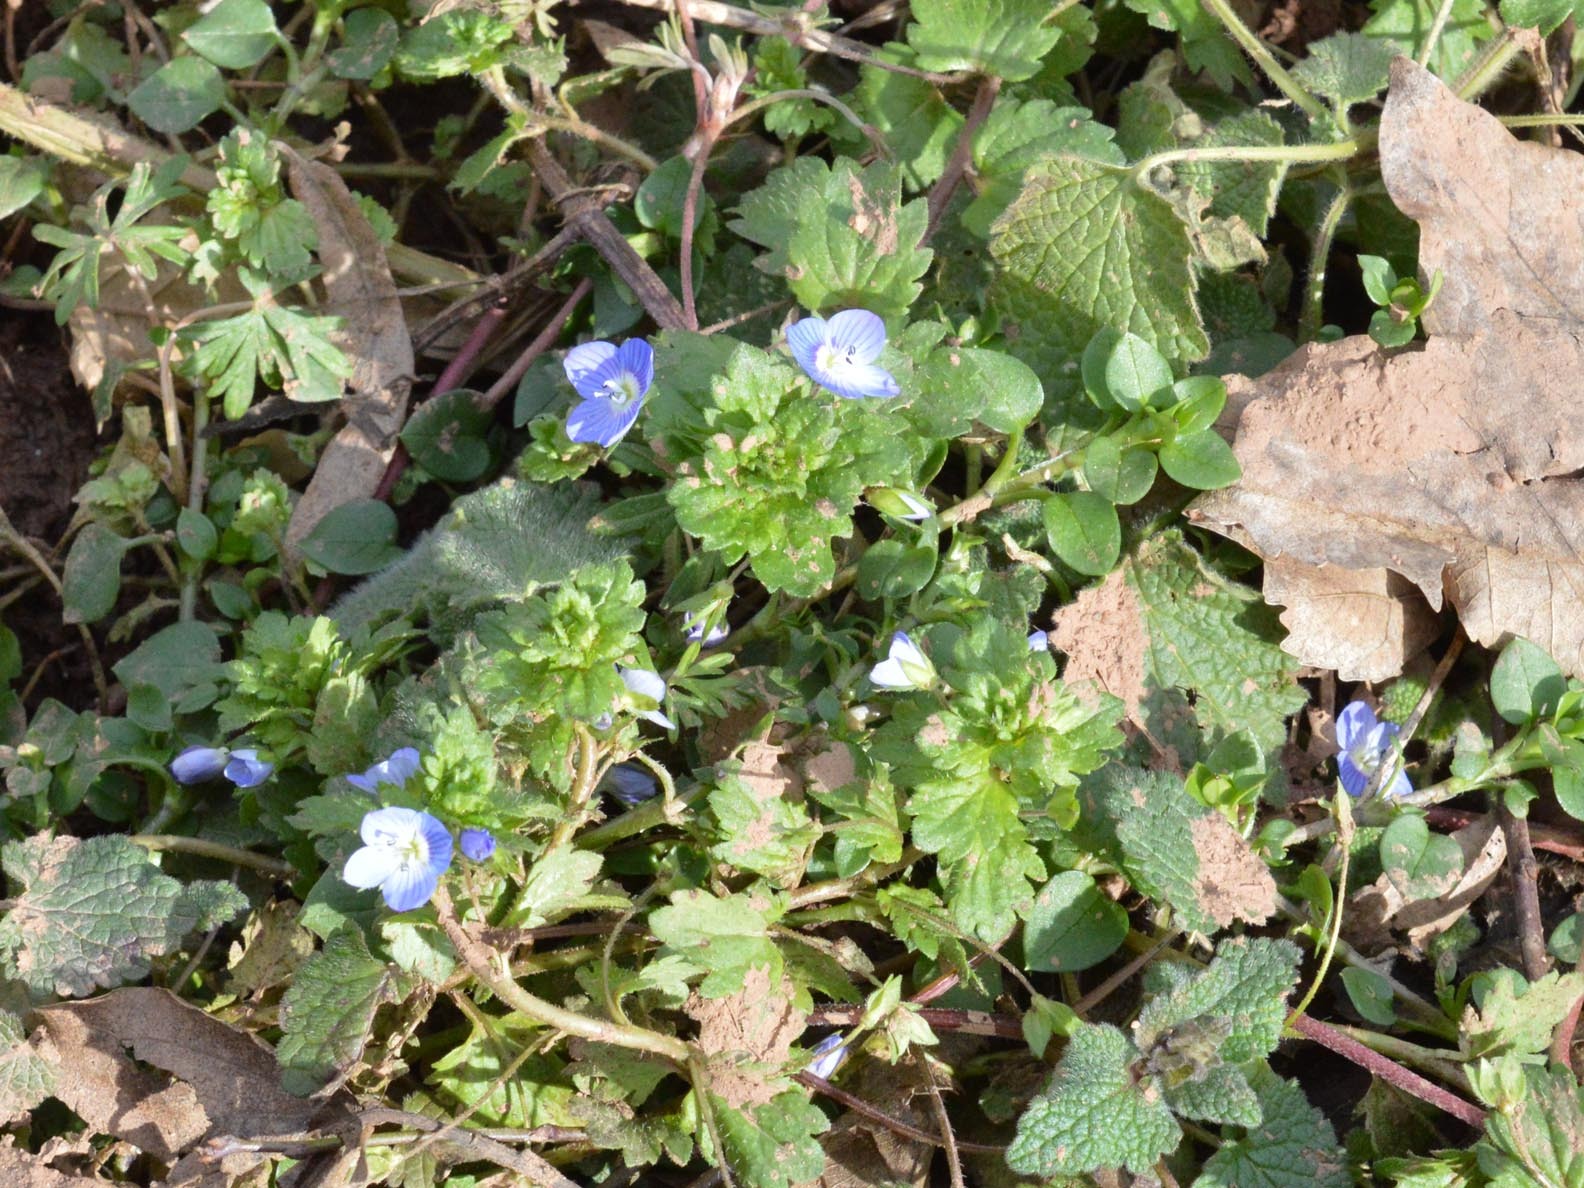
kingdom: Plantae
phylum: Tracheophyta
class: Magnoliopsida
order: Lamiales
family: Plantaginaceae
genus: Veronica
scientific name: Veronica persica
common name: Common field-speedwell
